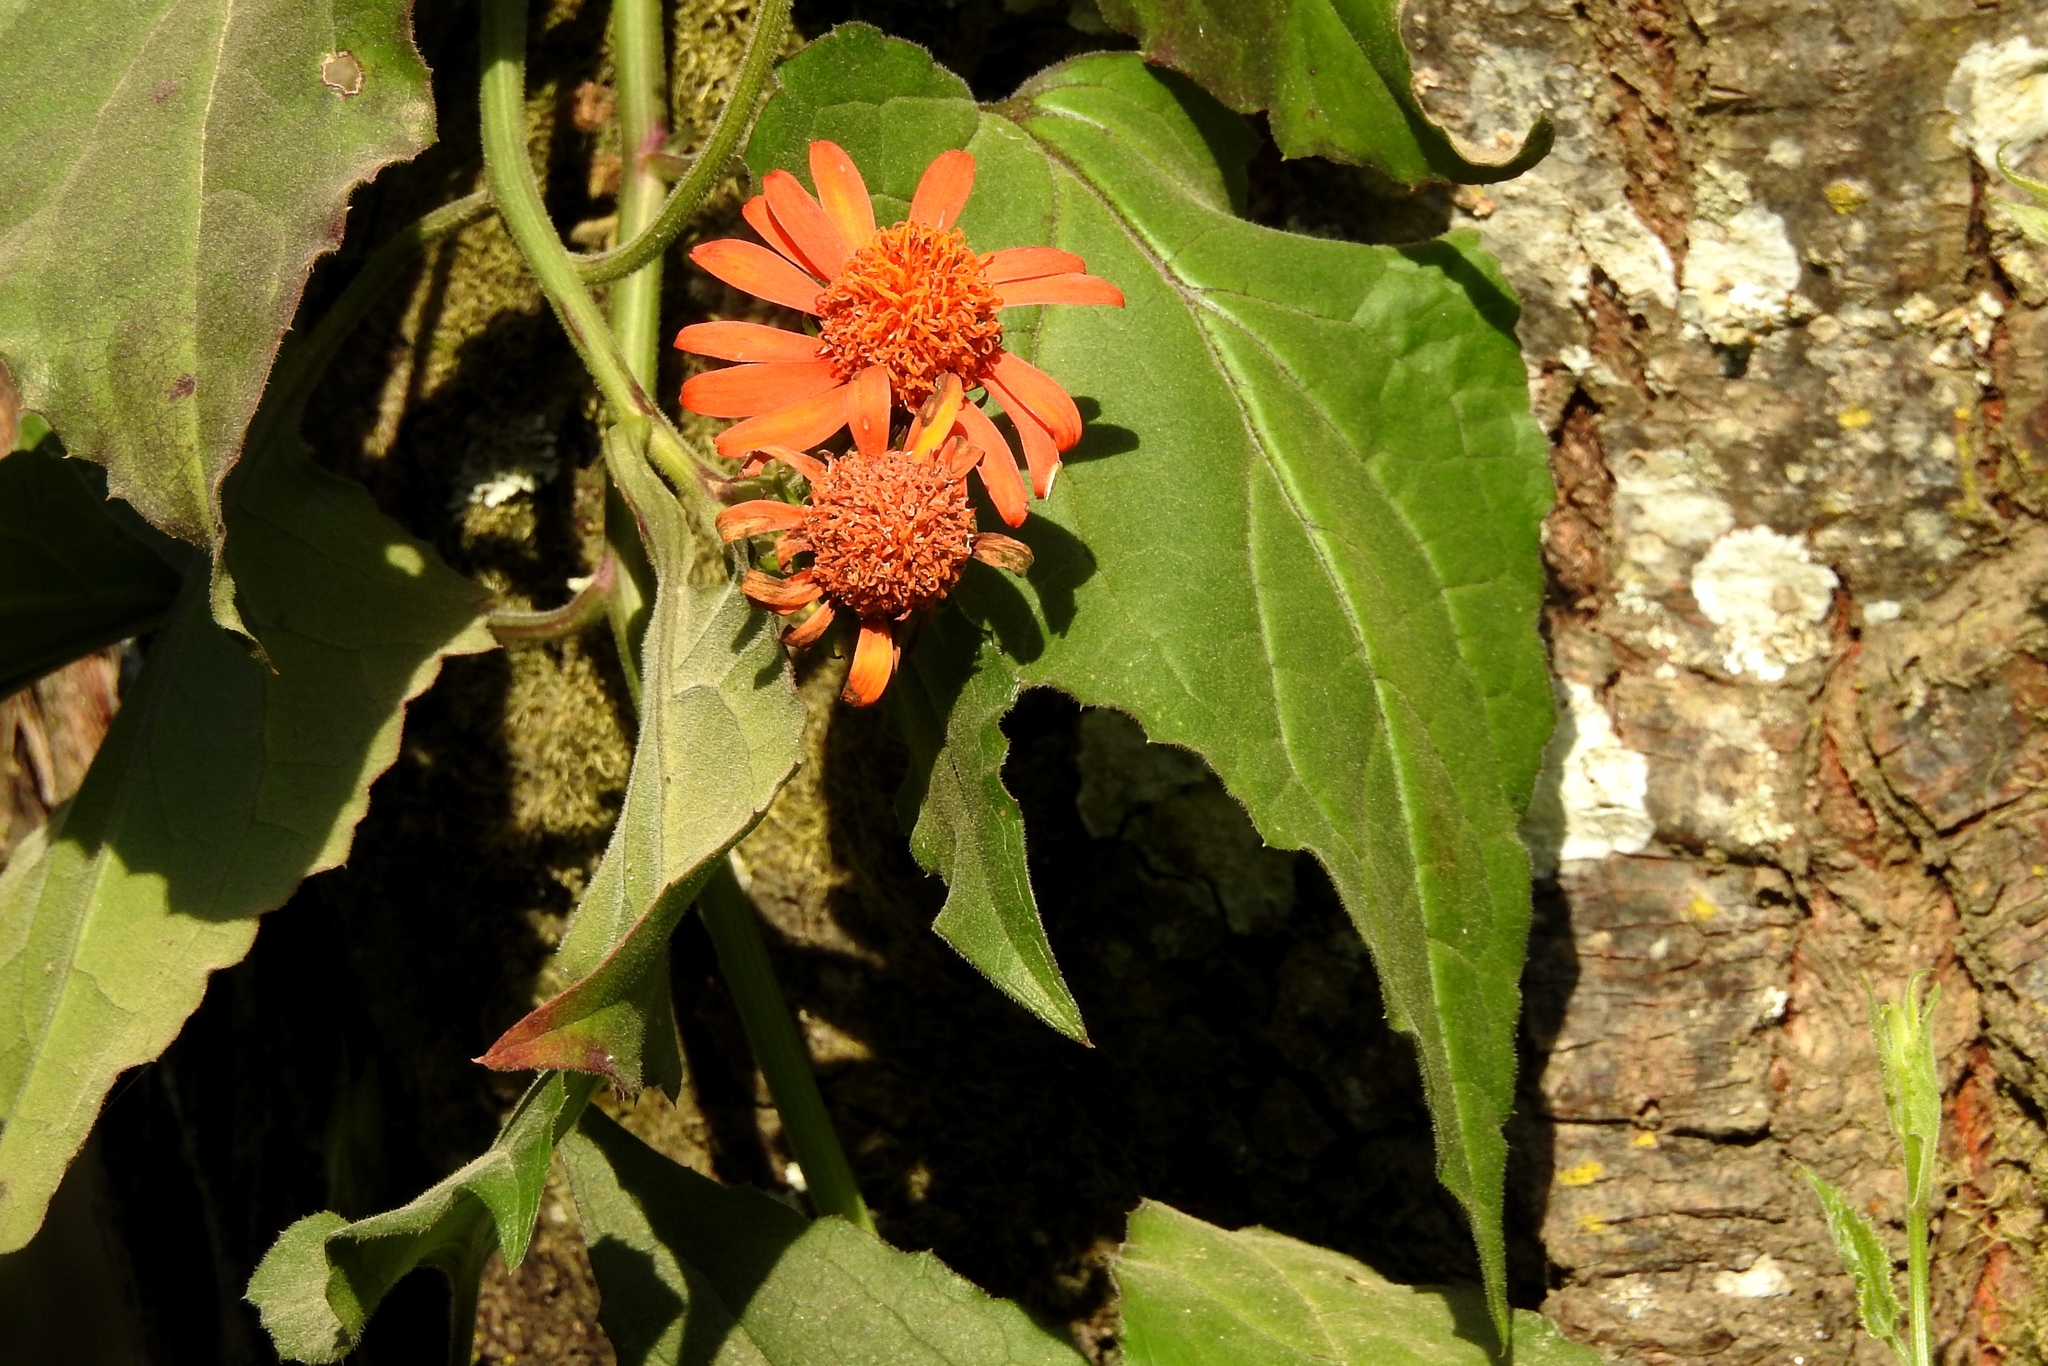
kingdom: Plantae
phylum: Tracheophyta
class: Magnoliopsida
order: Asterales
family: Asteraceae
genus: Pseudogynoxys
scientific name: Pseudogynoxys cumingii
